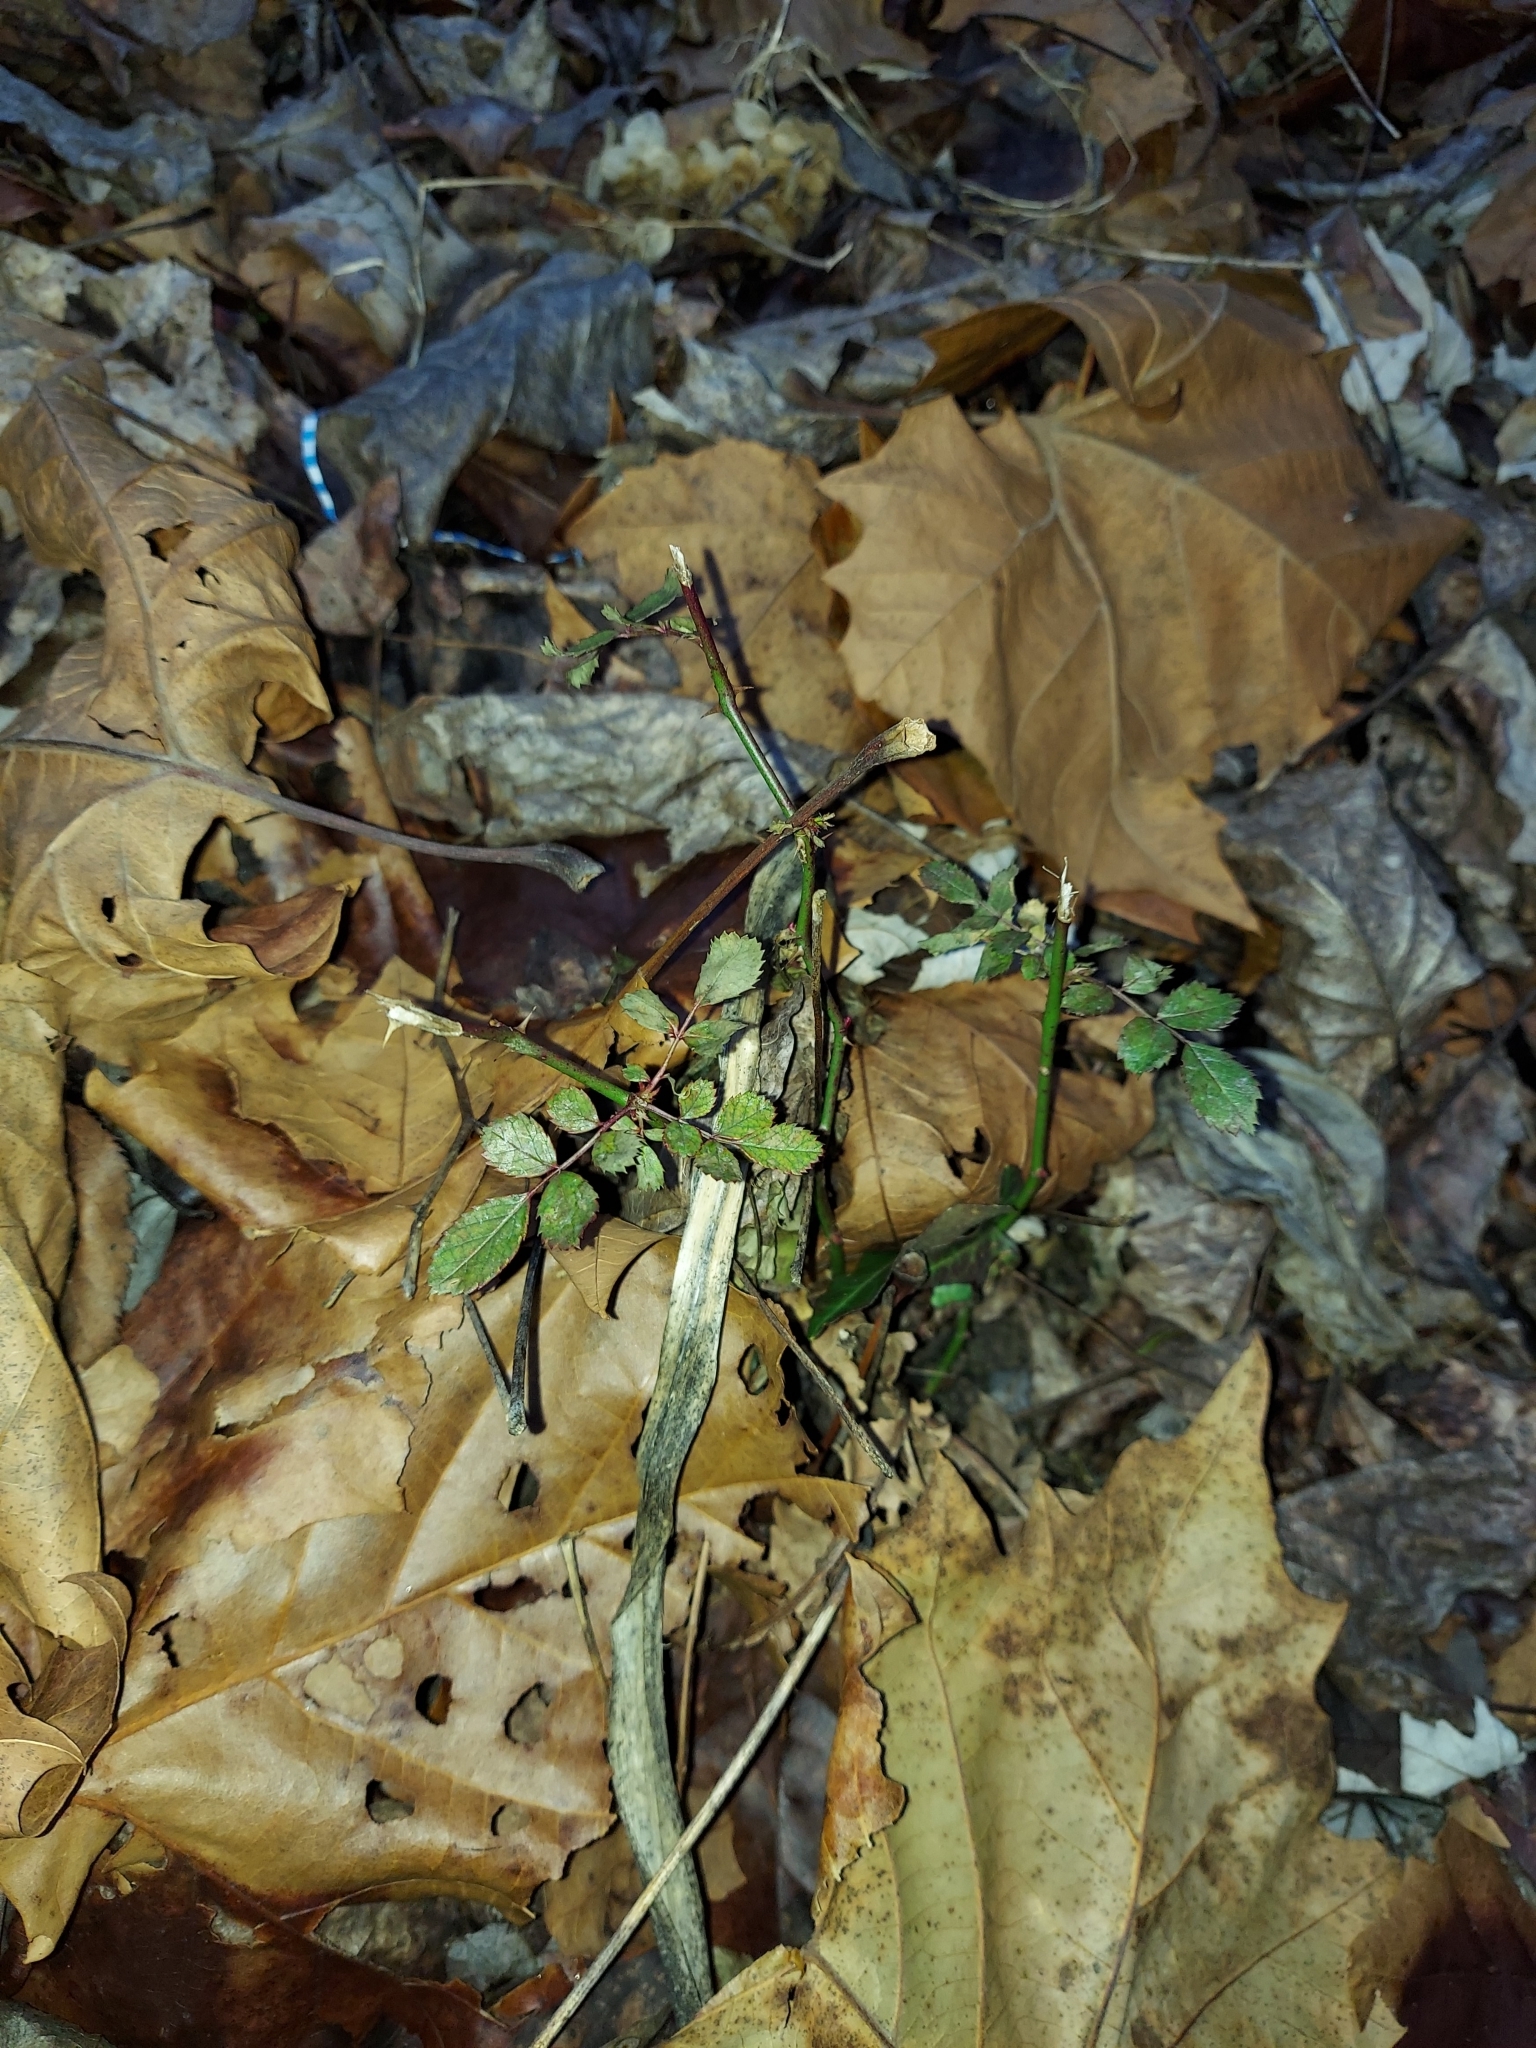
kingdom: Plantae
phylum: Tracheophyta
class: Magnoliopsida
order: Rosales
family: Rosaceae
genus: Rosa
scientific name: Rosa multiflora
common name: Multiflora rose
